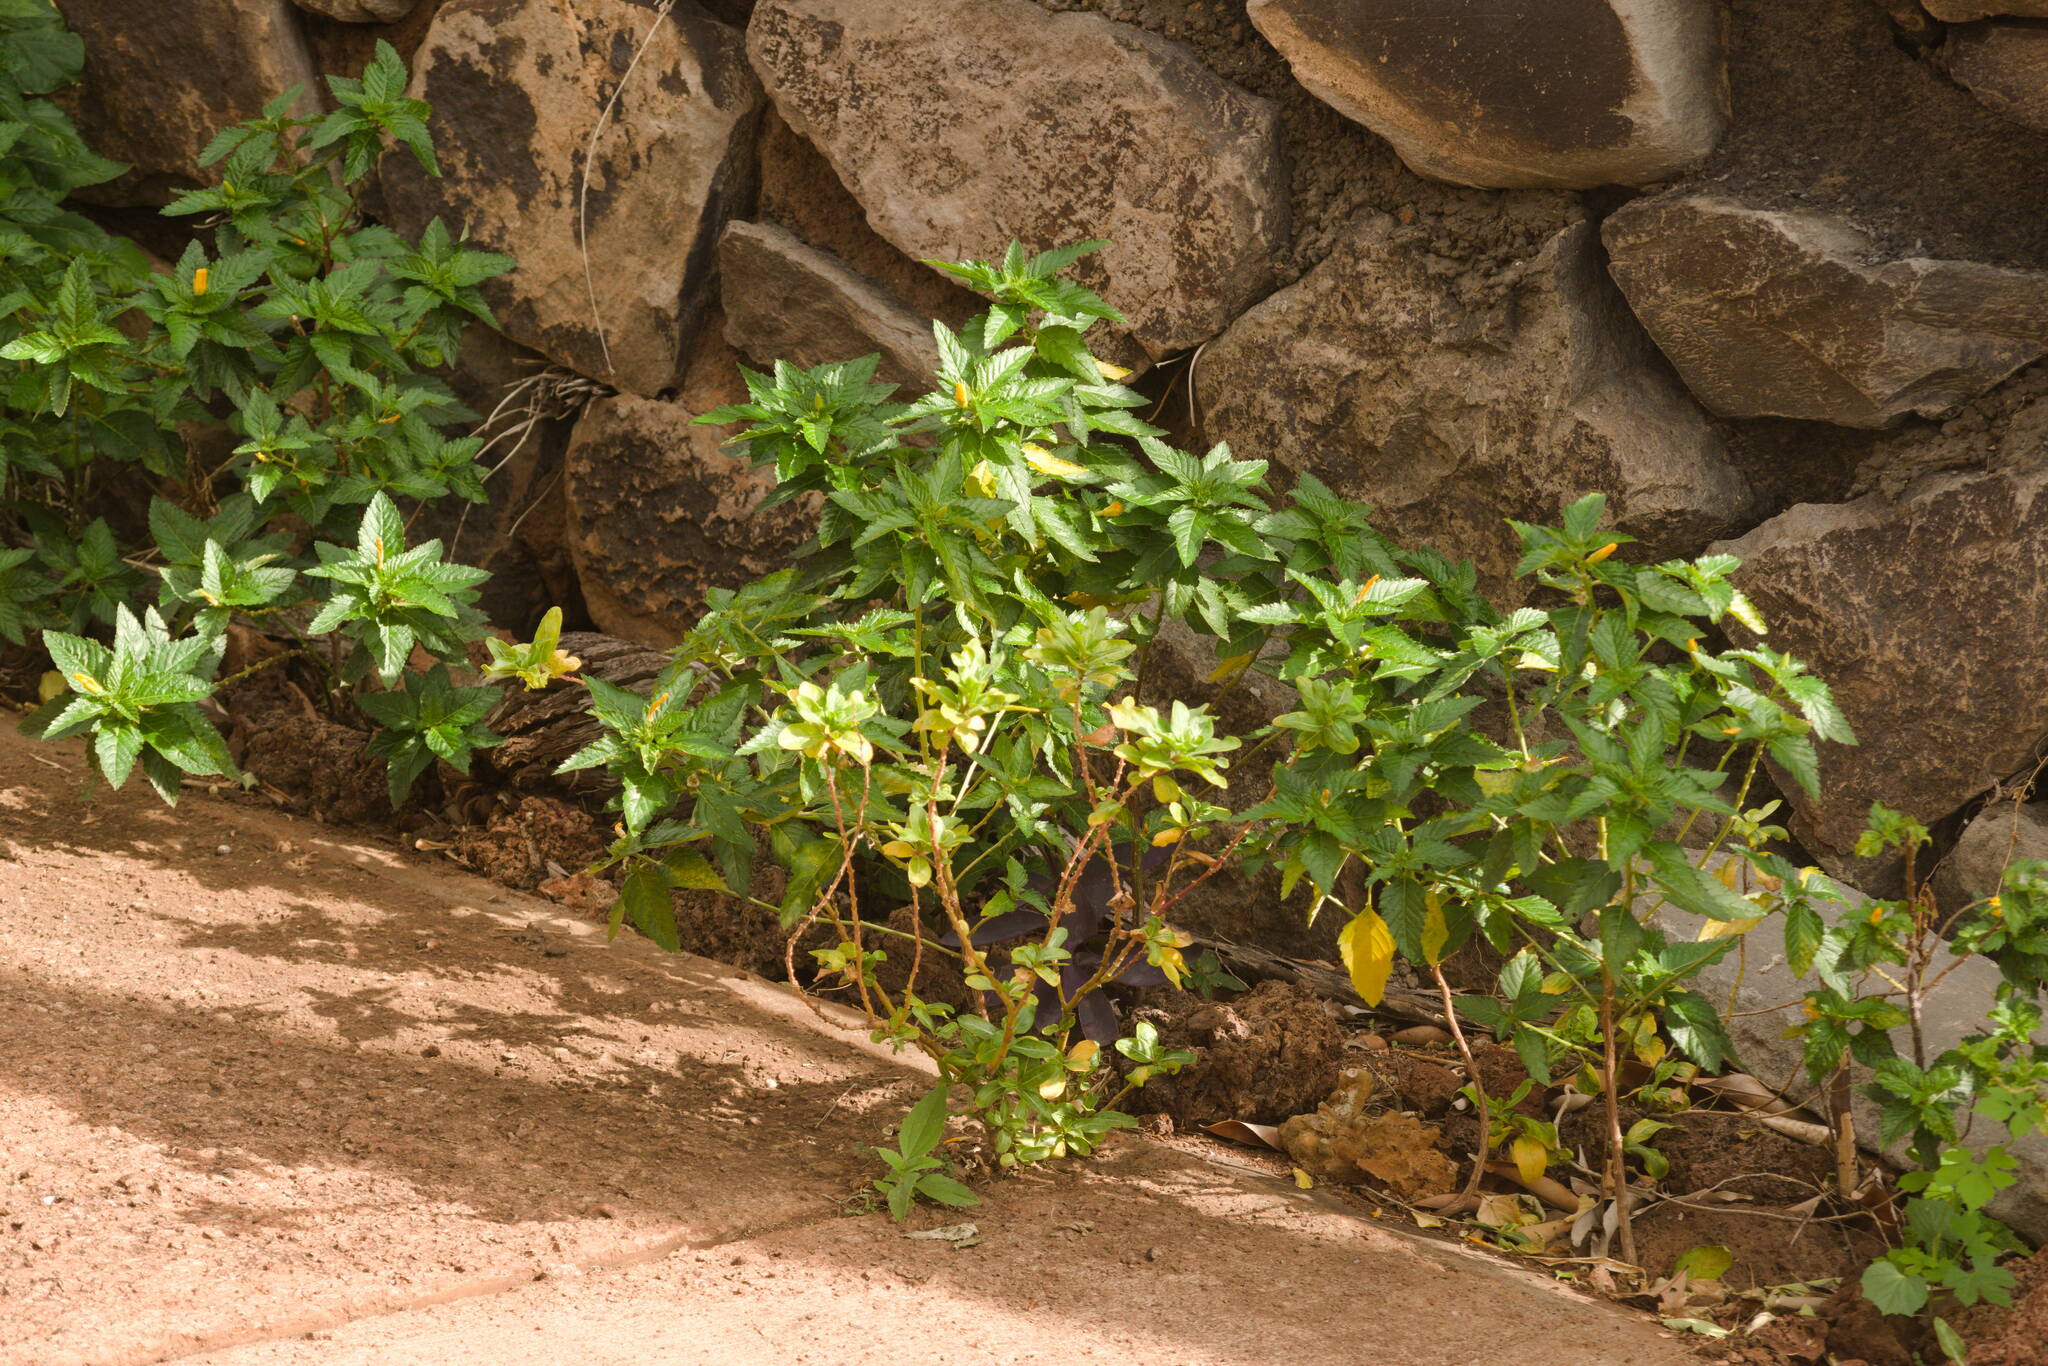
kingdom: Plantae
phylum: Tracheophyta
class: Magnoliopsida
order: Malpighiales
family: Turneraceae
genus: Turnera
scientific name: Turnera ulmifolia
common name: Ramgoat dashalong
